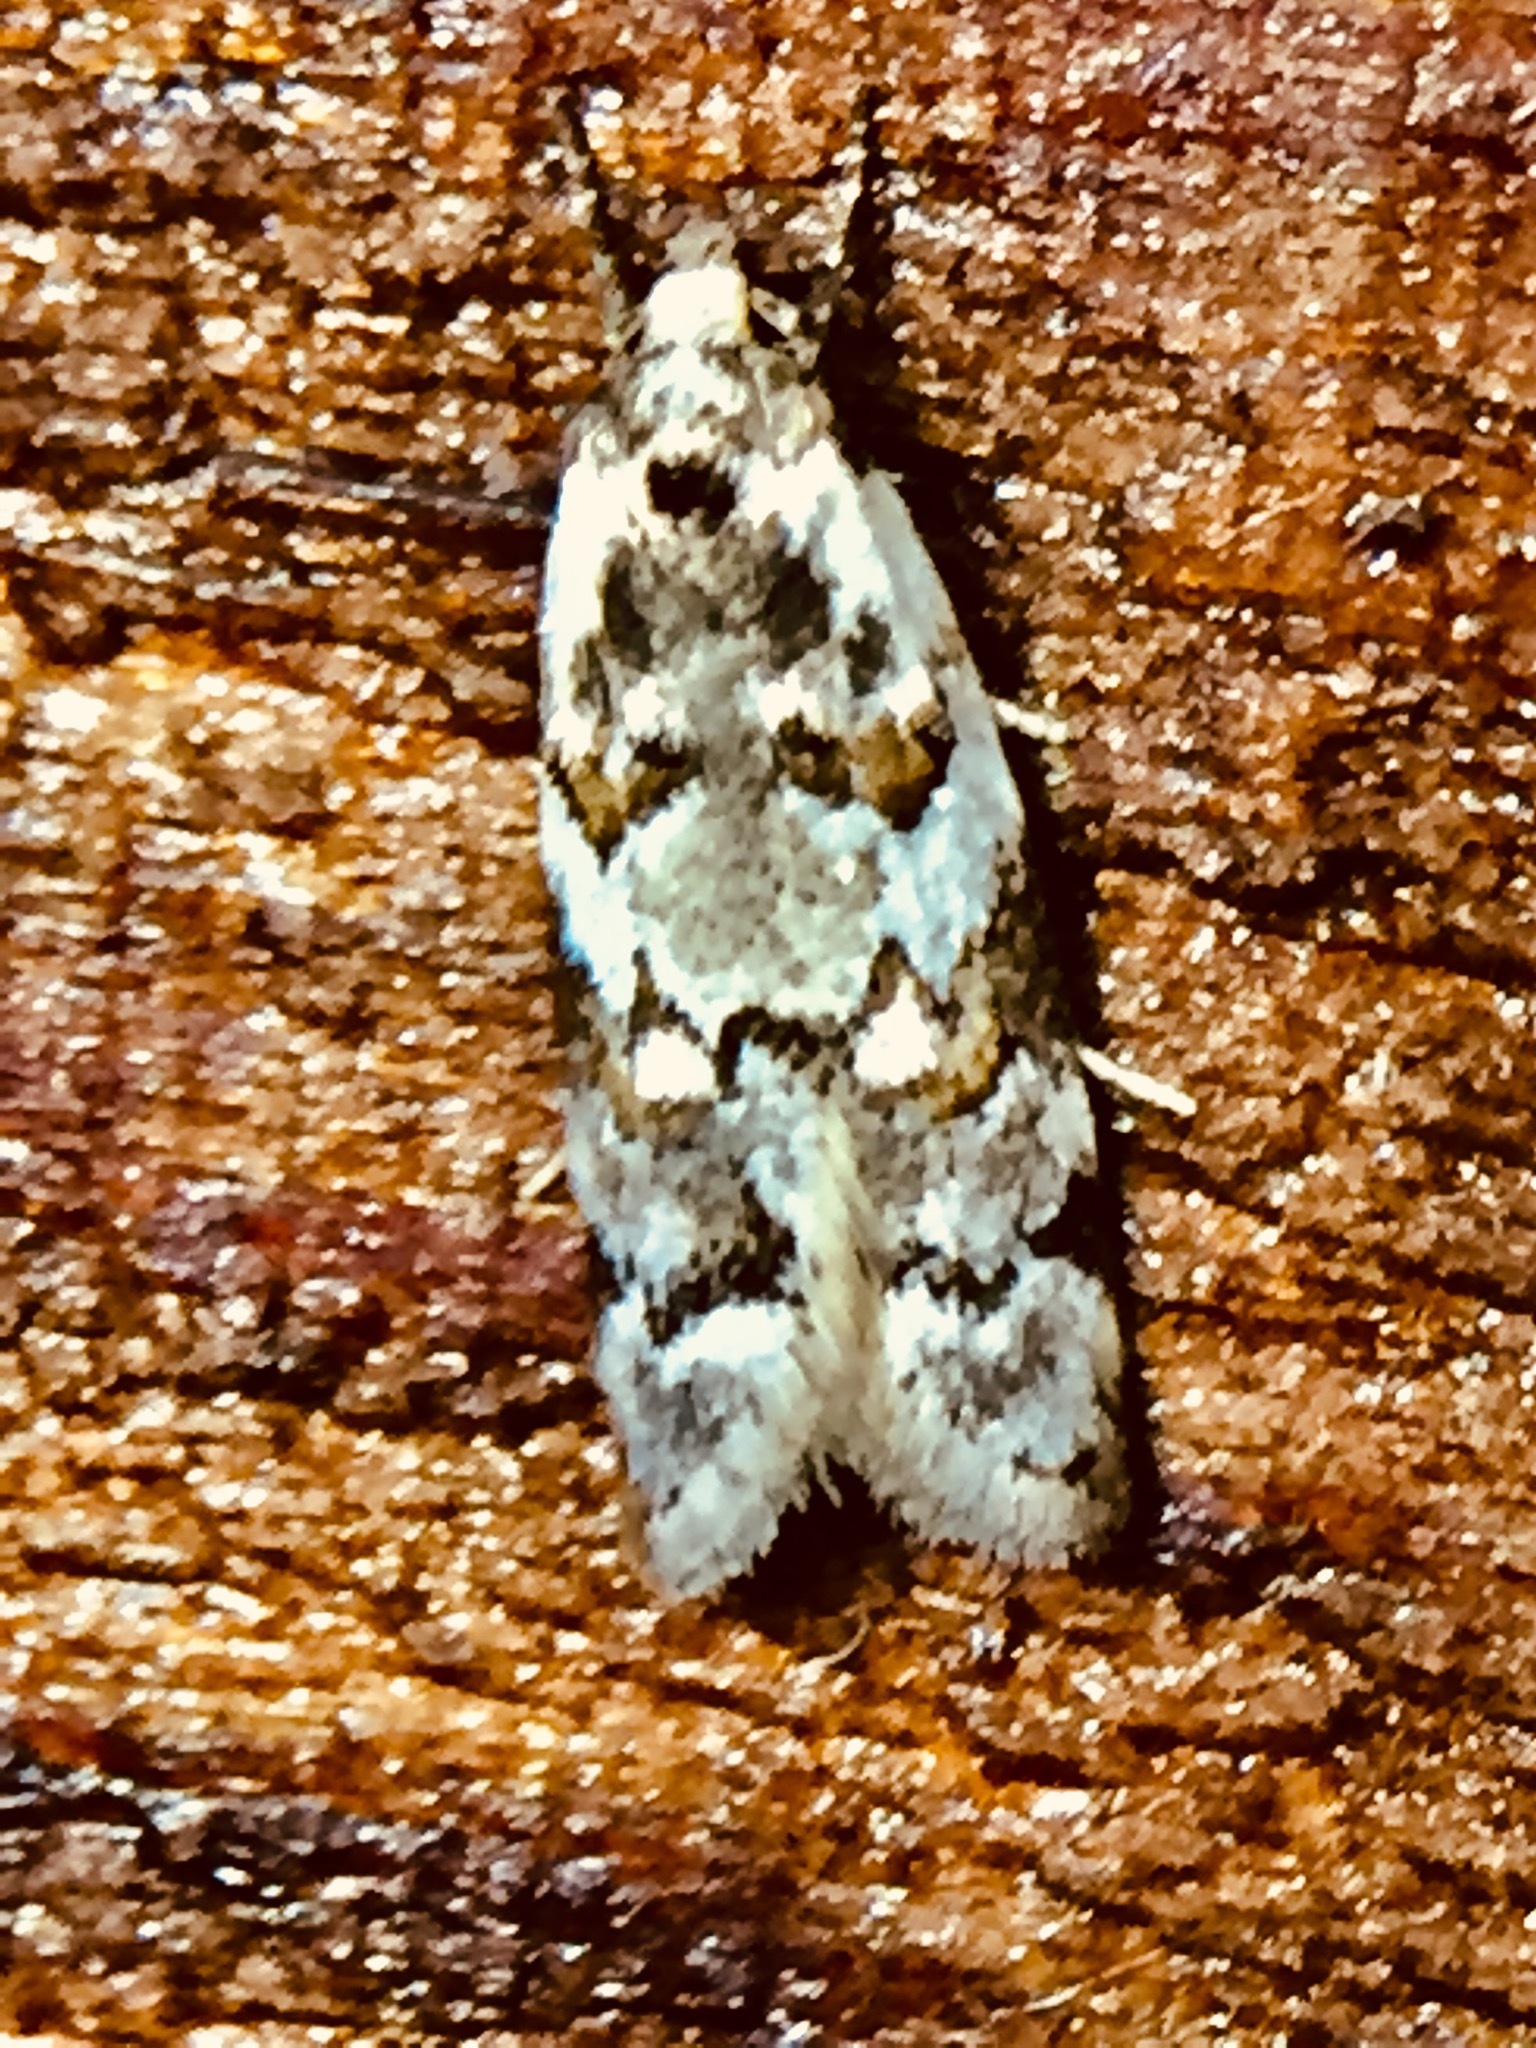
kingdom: Animalia
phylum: Arthropoda
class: Insecta
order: Lepidoptera
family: Oecophoridae
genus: Trachypepla
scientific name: Trachypepla galaxias
